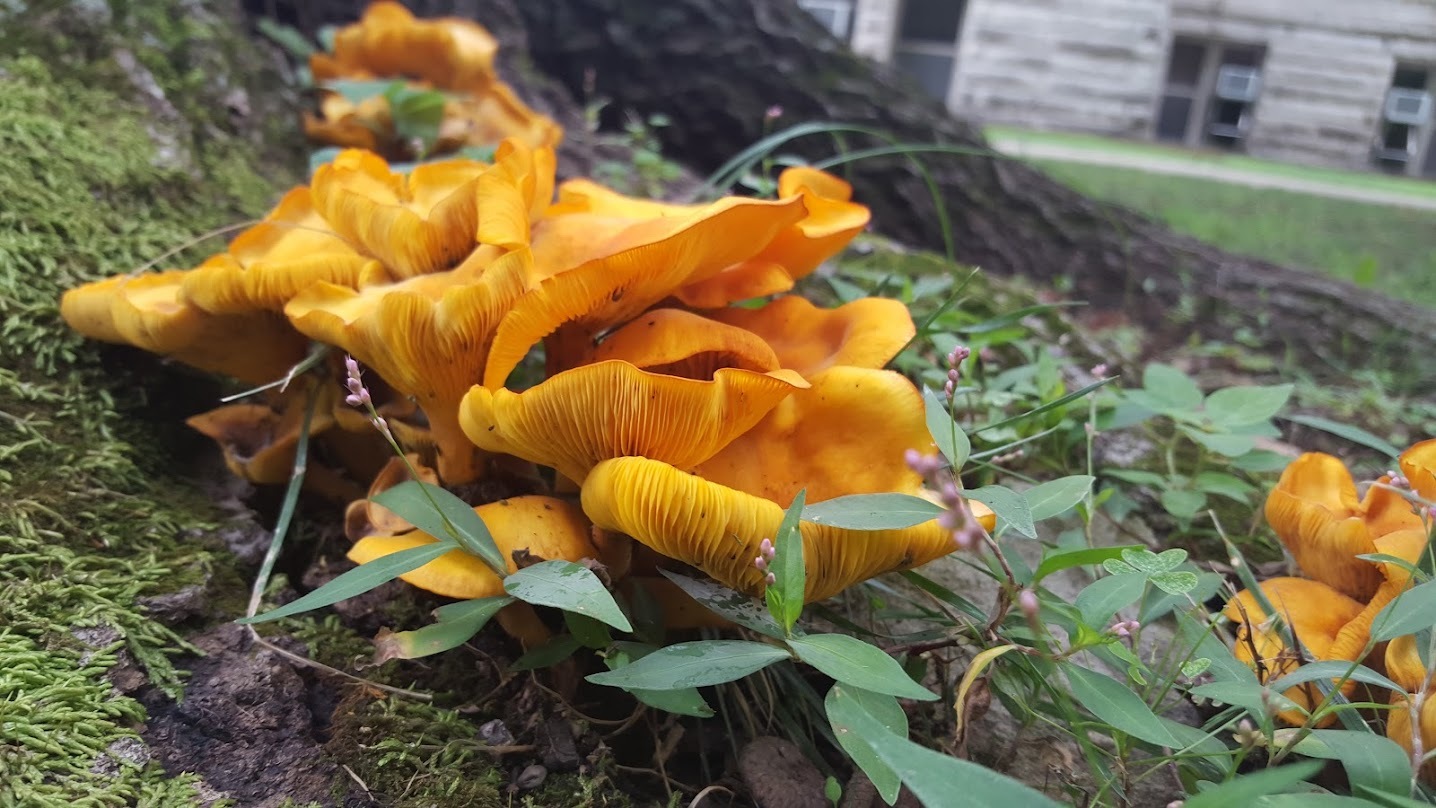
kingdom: Fungi
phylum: Basidiomycota
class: Agaricomycetes
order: Agaricales
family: Omphalotaceae
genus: Omphalotus
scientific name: Omphalotus illudens
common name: Jack o lantern
